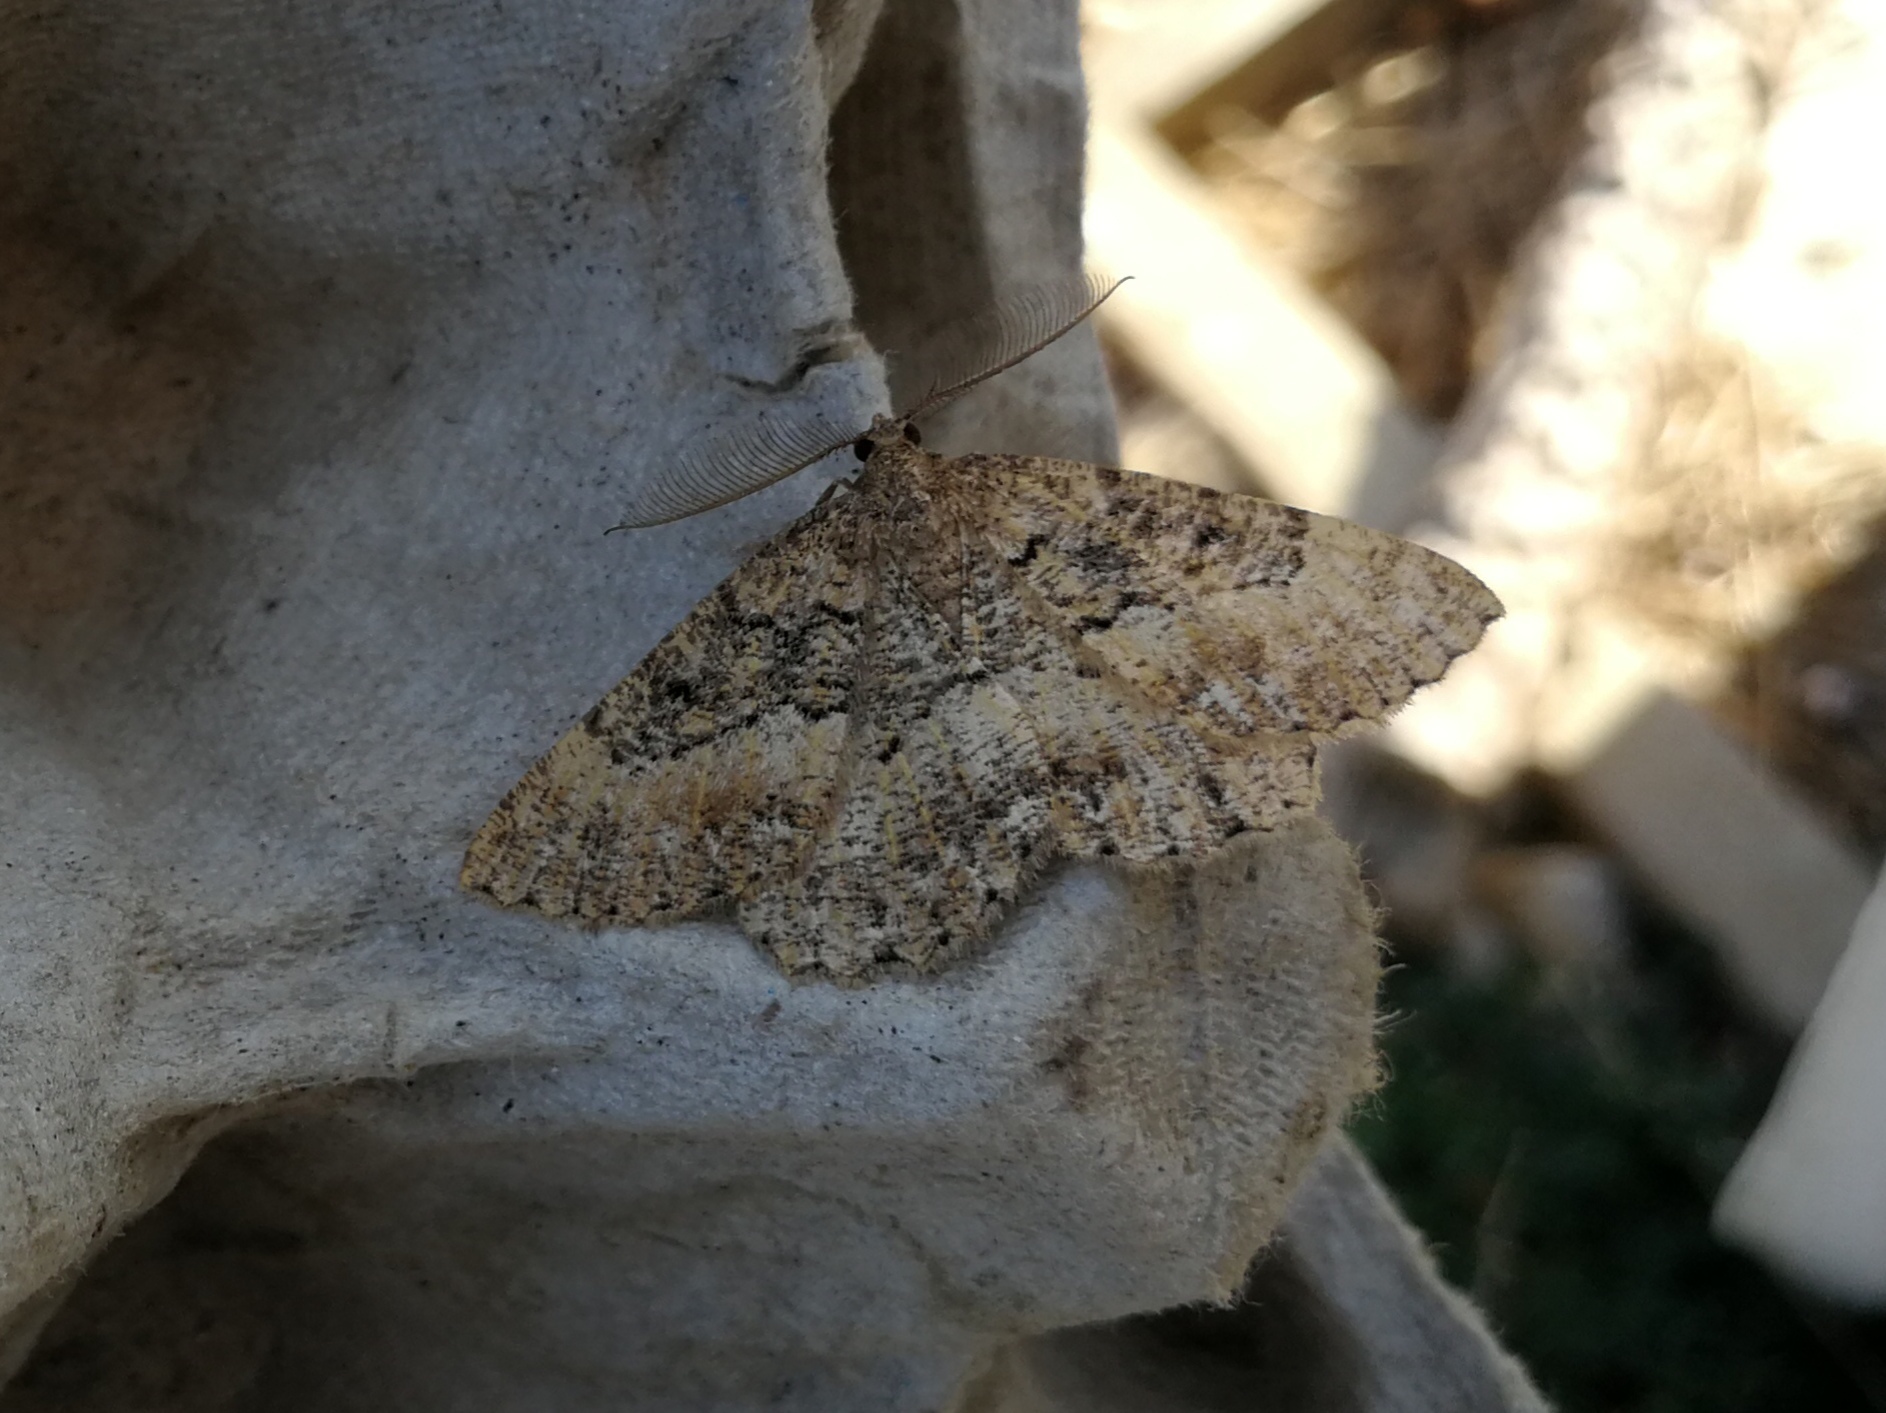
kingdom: Animalia
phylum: Arthropoda
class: Insecta
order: Lepidoptera
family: Geometridae
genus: Selidosema
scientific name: Selidosema taeniolaria
